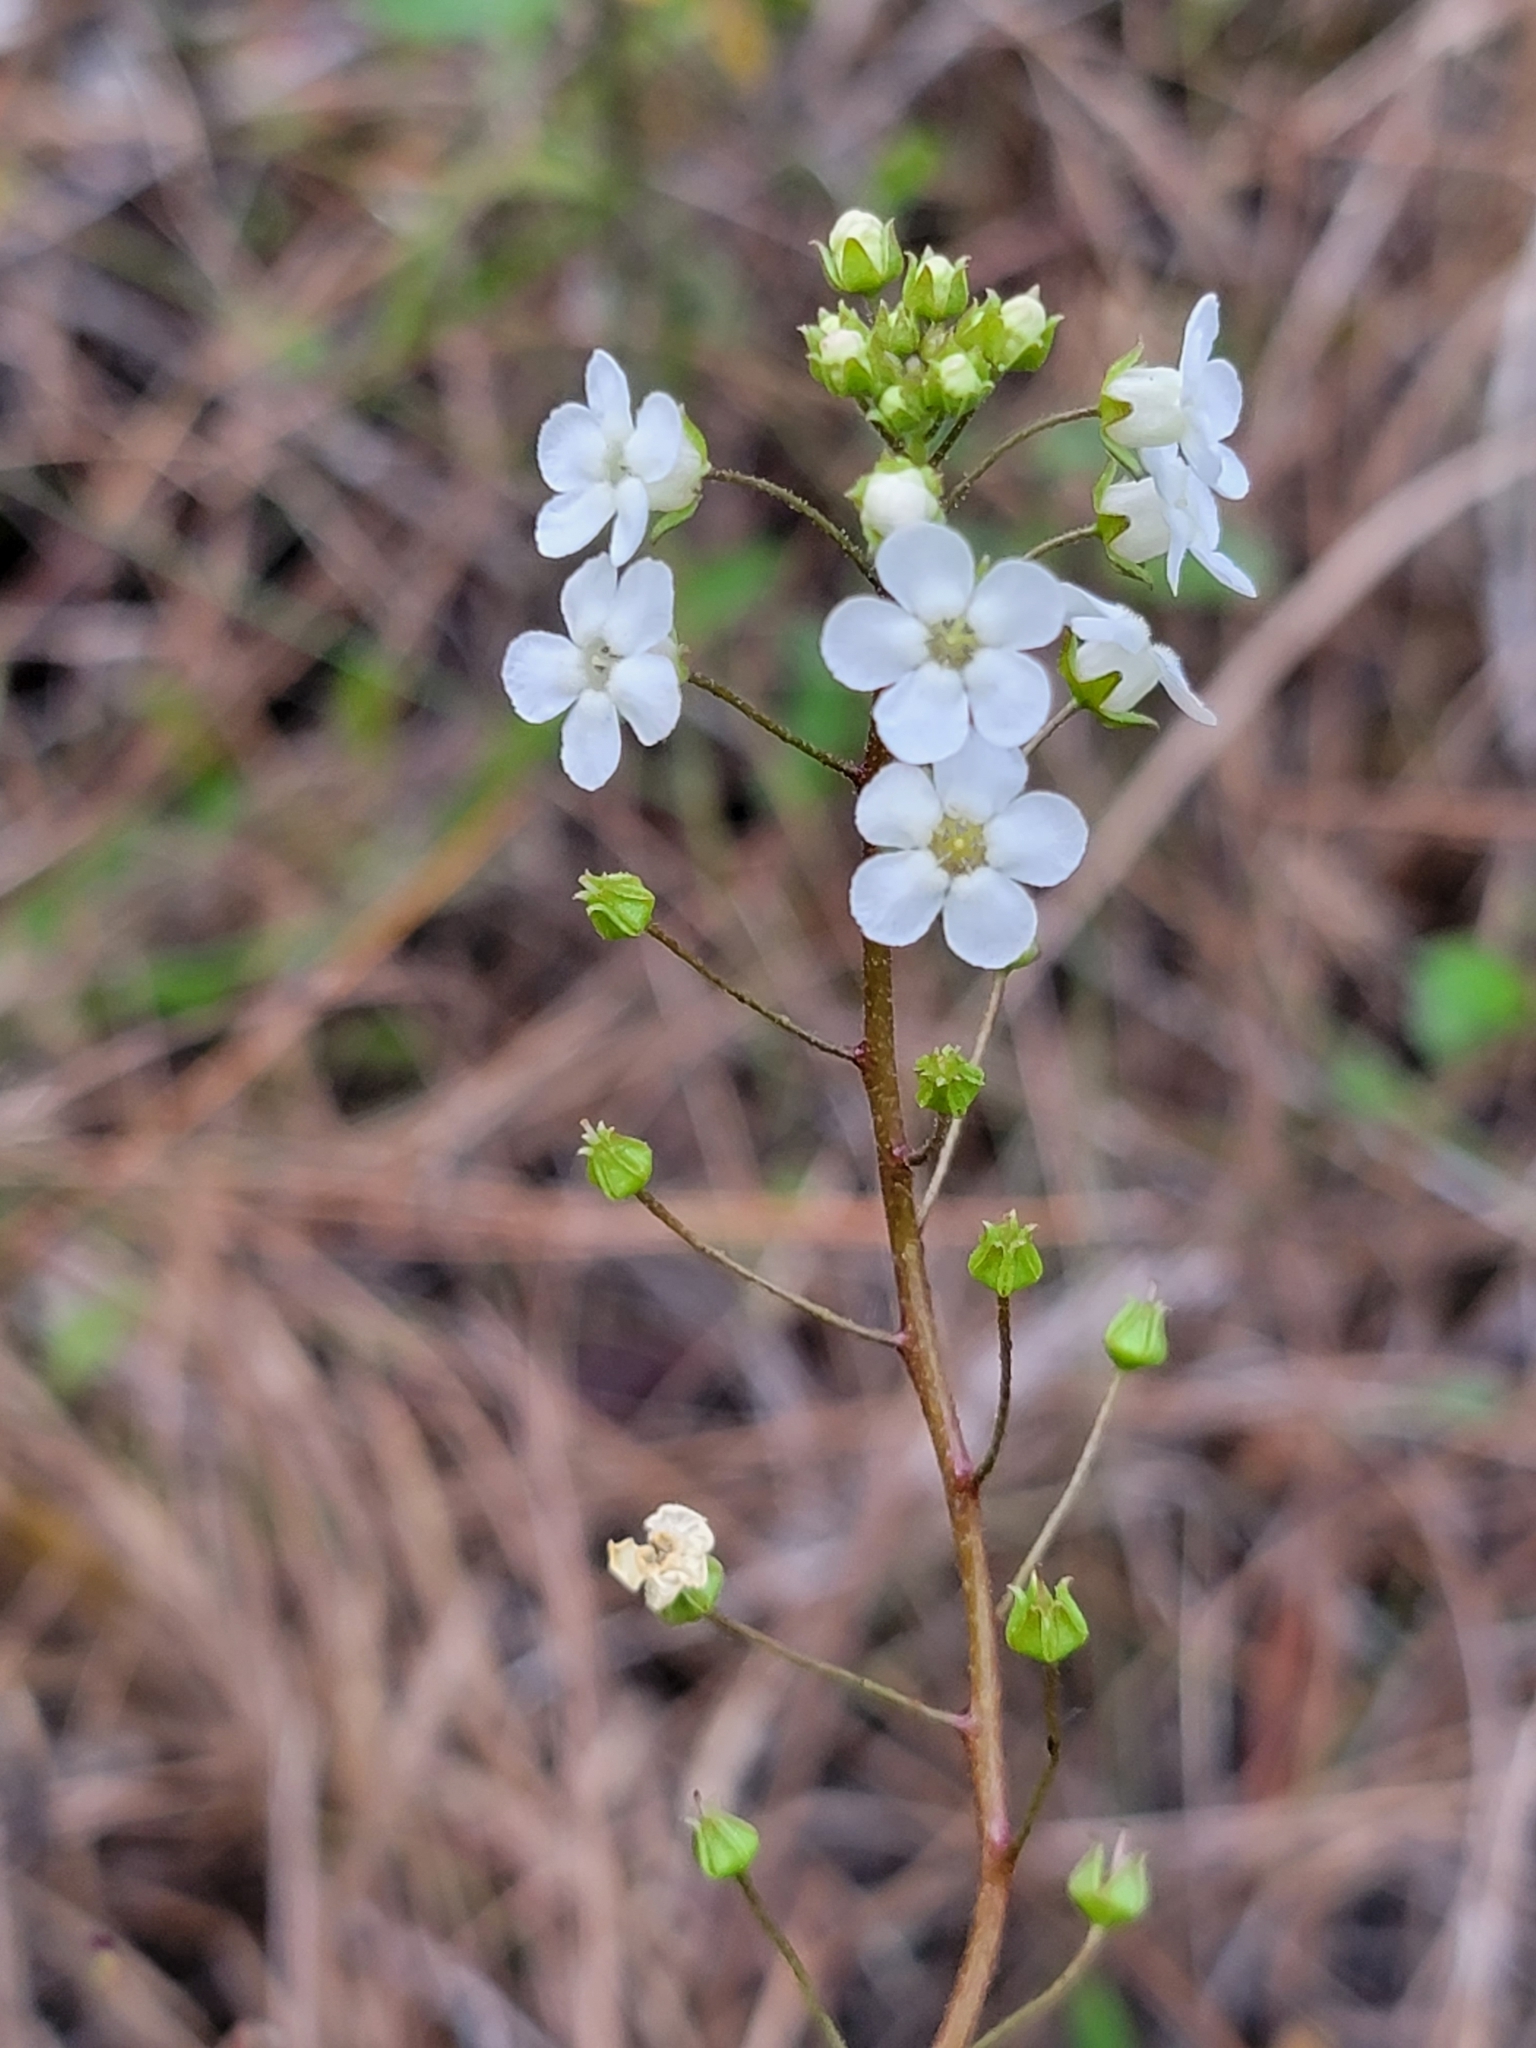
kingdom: Plantae
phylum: Tracheophyta
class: Magnoliopsida
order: Ericales
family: Primulaceae
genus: Samolus
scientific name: Samolus ebracteatus
